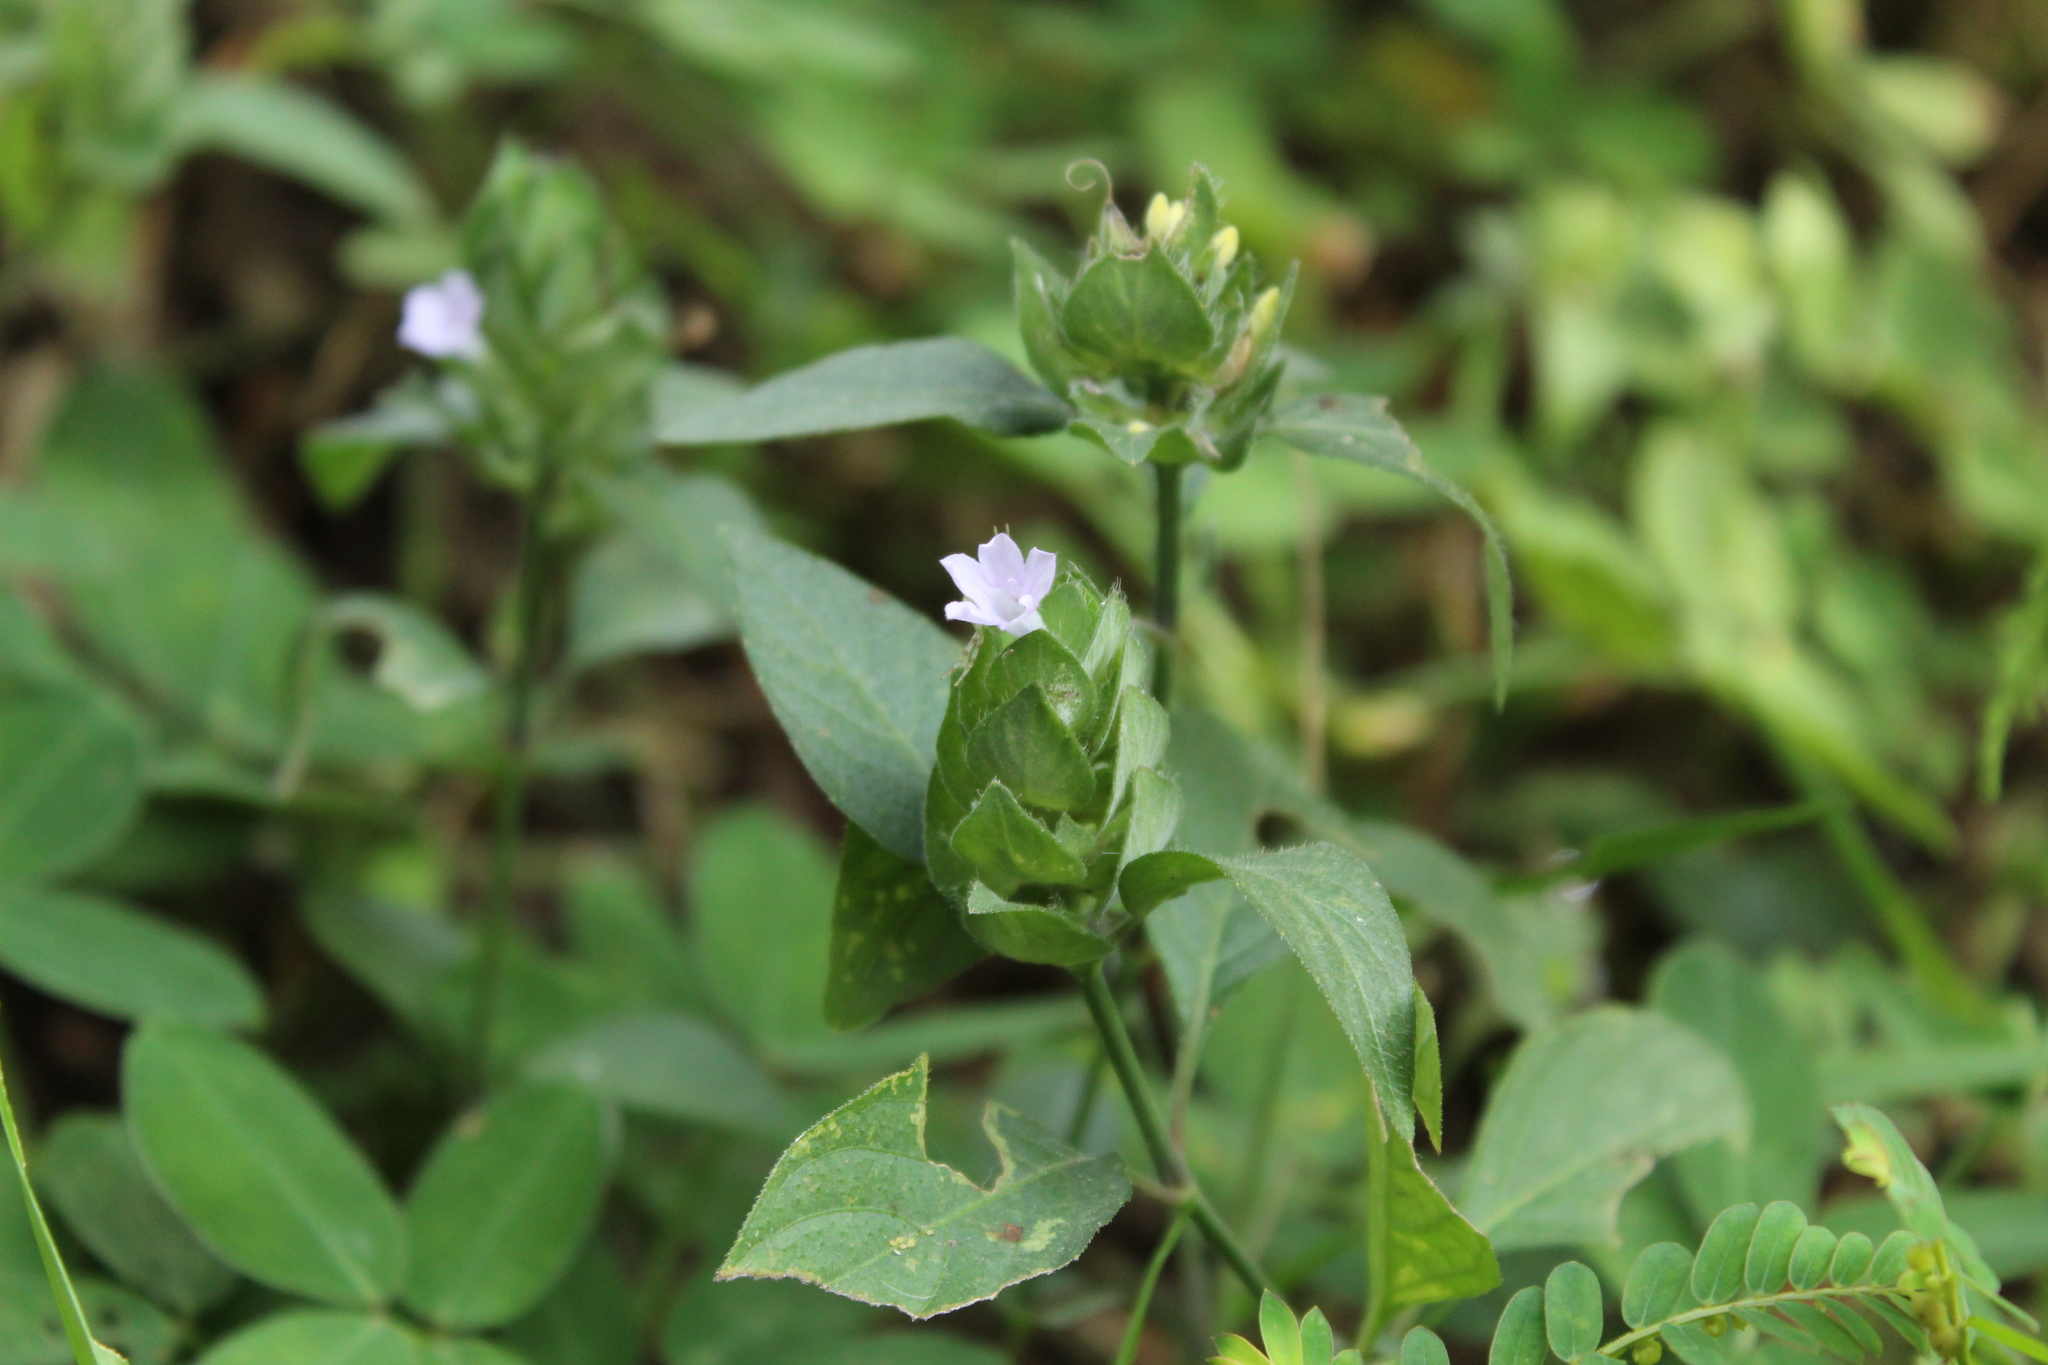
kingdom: Plantae
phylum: Tracheophyta
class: Magnoliopsida
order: Lamiales
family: Acanthaceae
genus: Ruellia
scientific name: Ruellia blechum
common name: Browne's blechum
